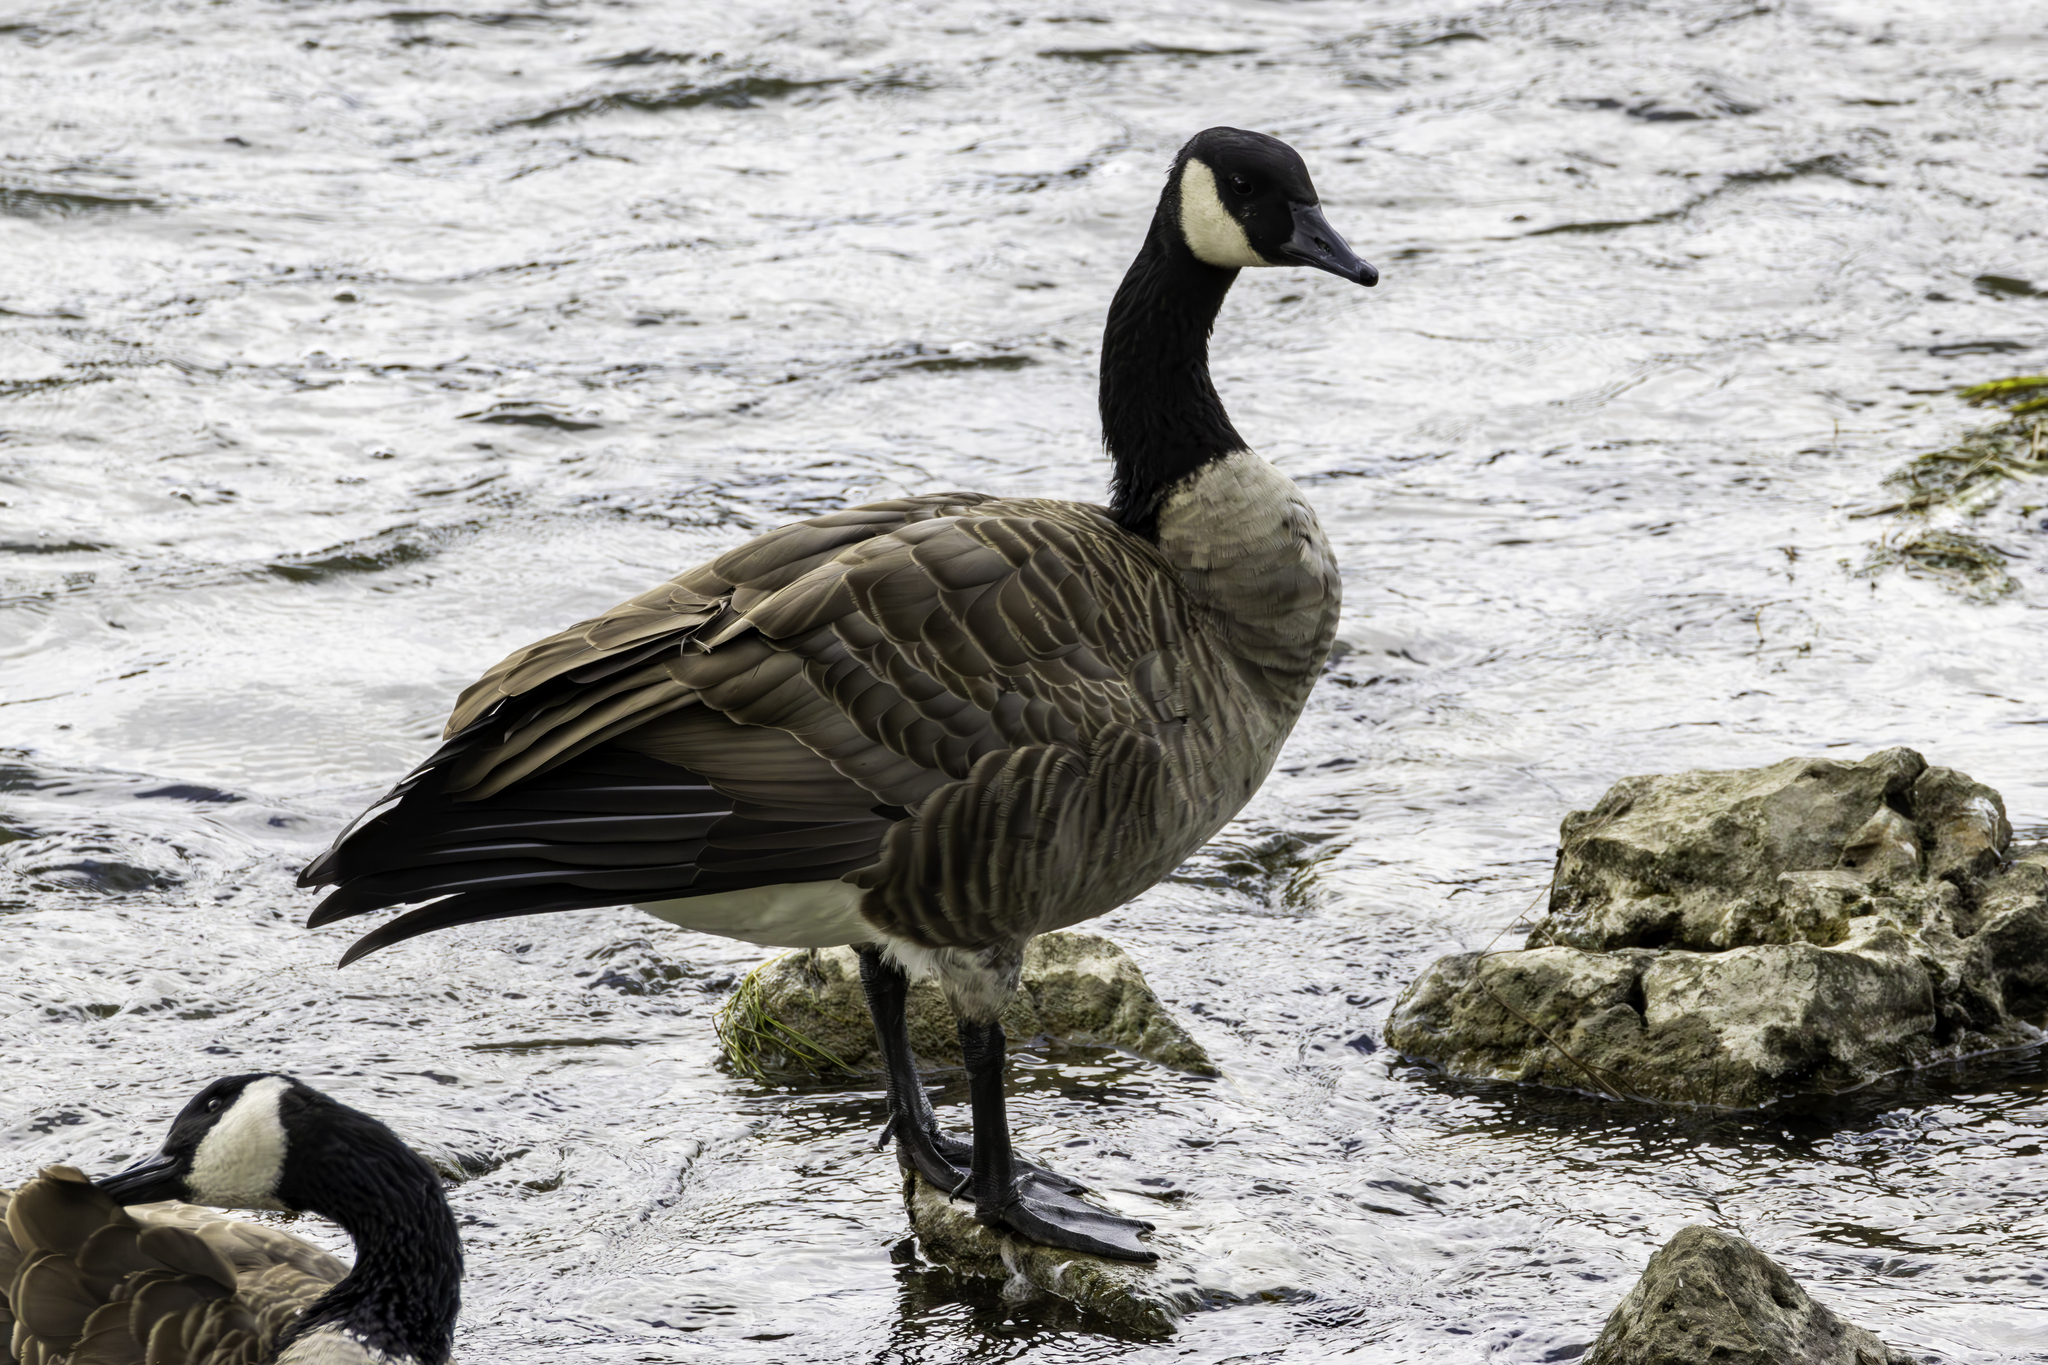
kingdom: Animalia
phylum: Chordata
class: Aves
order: Anseriformes
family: Anatidae
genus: Branta
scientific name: Branta canadensis
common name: Canada goose
